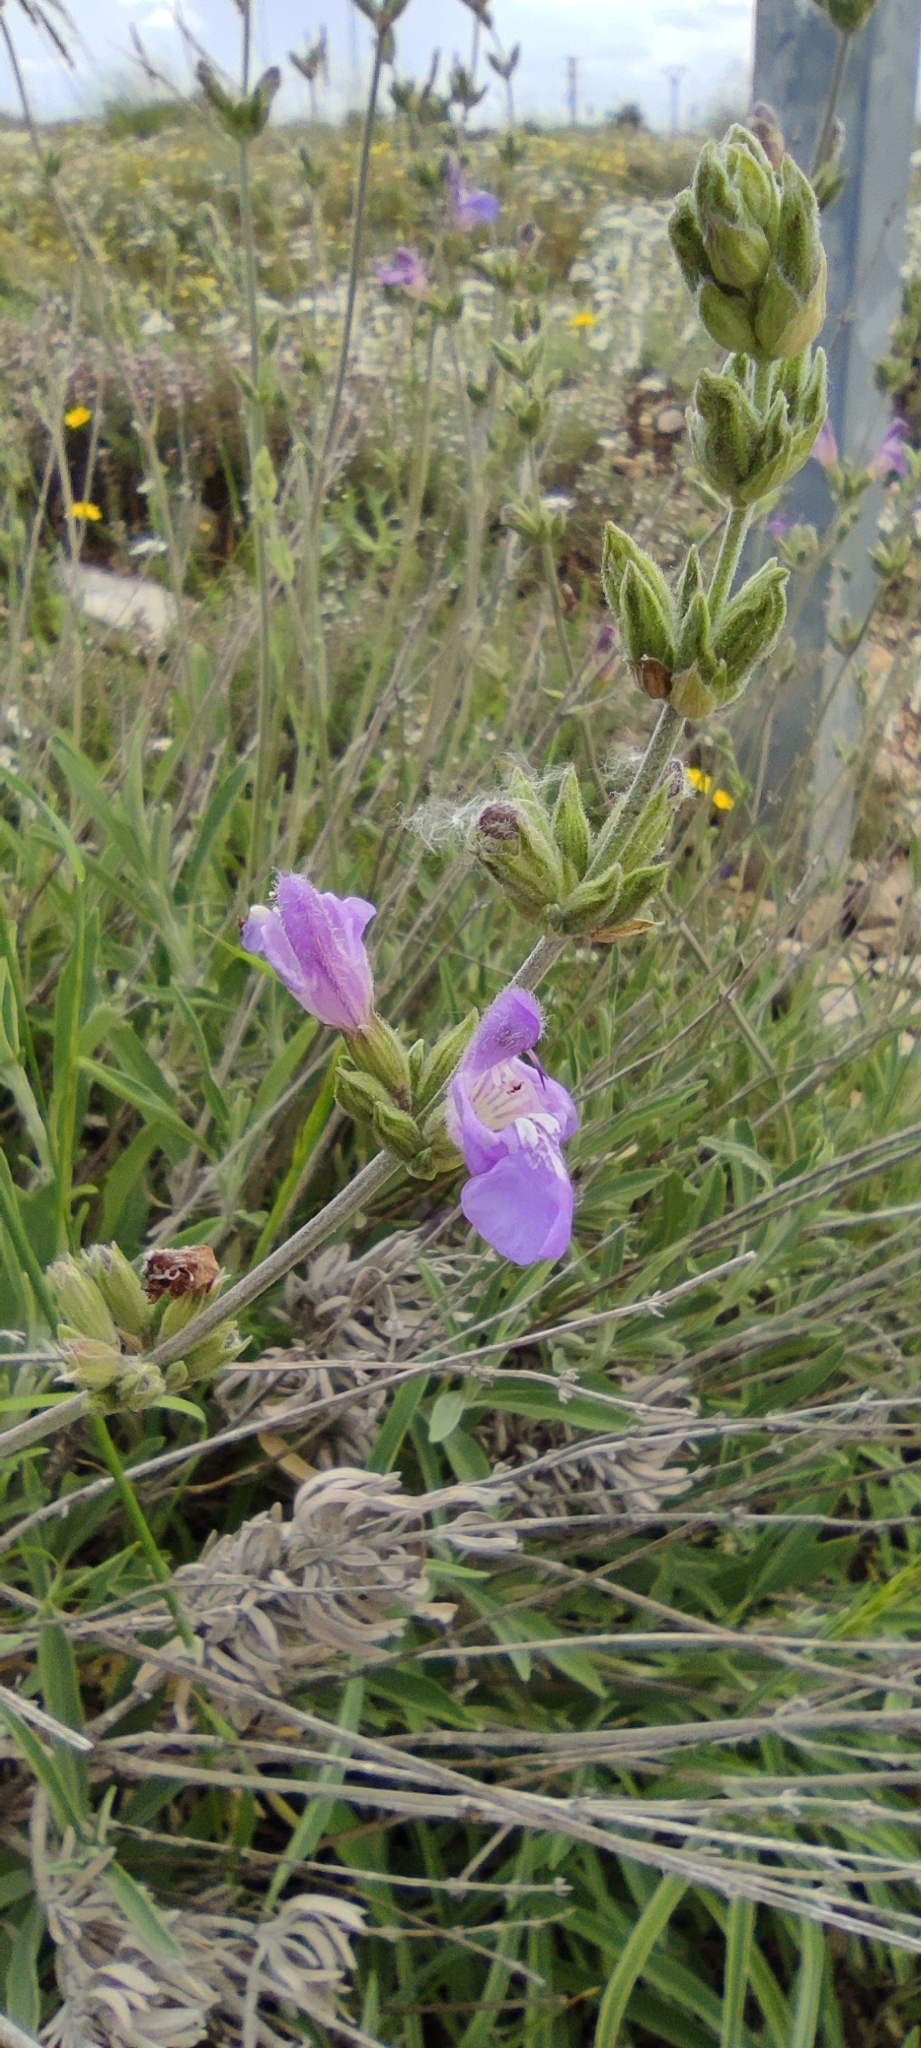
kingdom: Plantae
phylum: Tracheophyta
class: Magnoliopsida
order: Lamiales
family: Lamiaceae
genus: Salvia
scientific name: Salvia officinalis
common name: Sage
